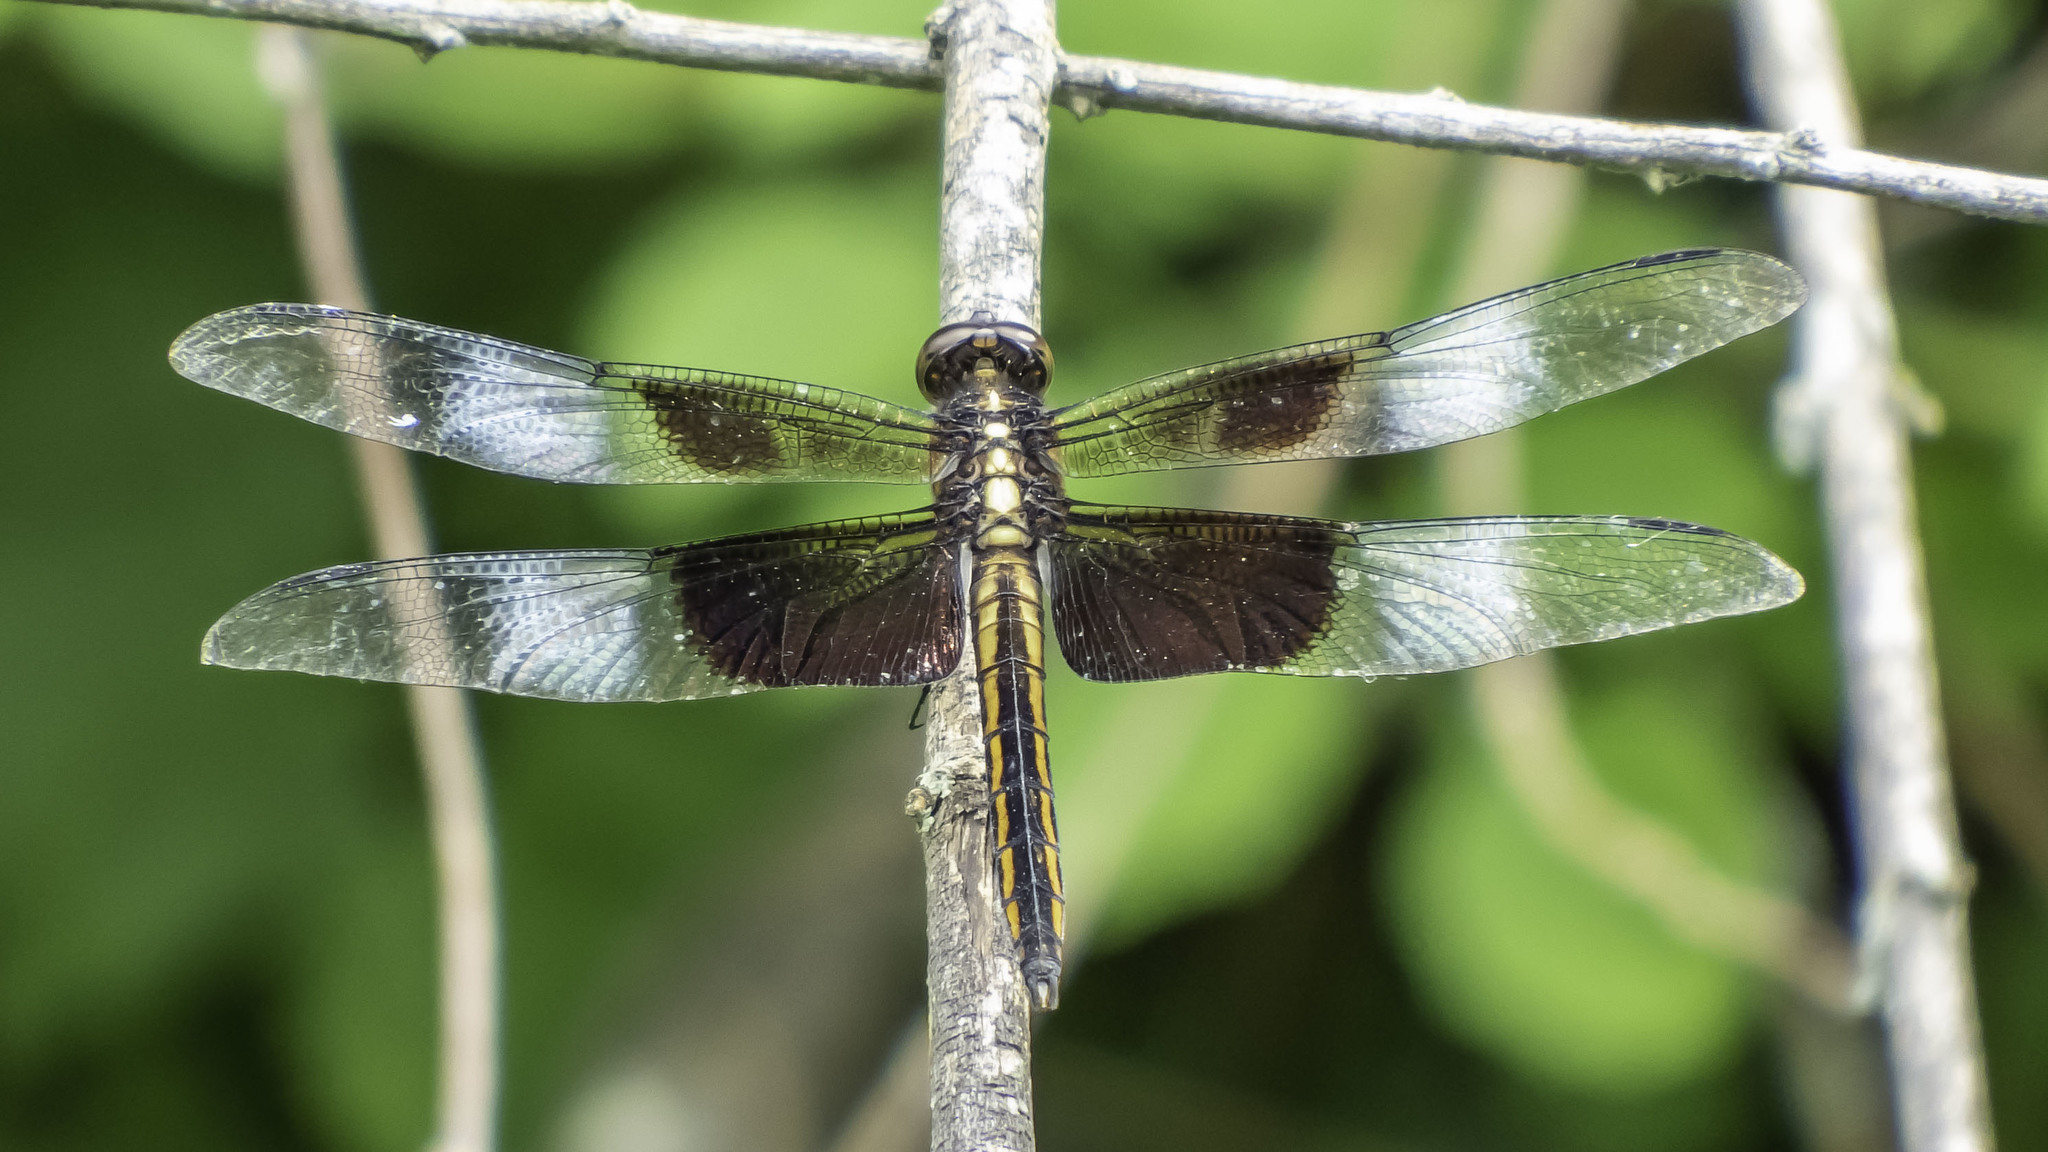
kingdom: Animalia
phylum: Arthropoda
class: Insecta
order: Odonata
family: Libellulidae
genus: Libellula
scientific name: Libellula luctuosa
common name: Widow skimmer
